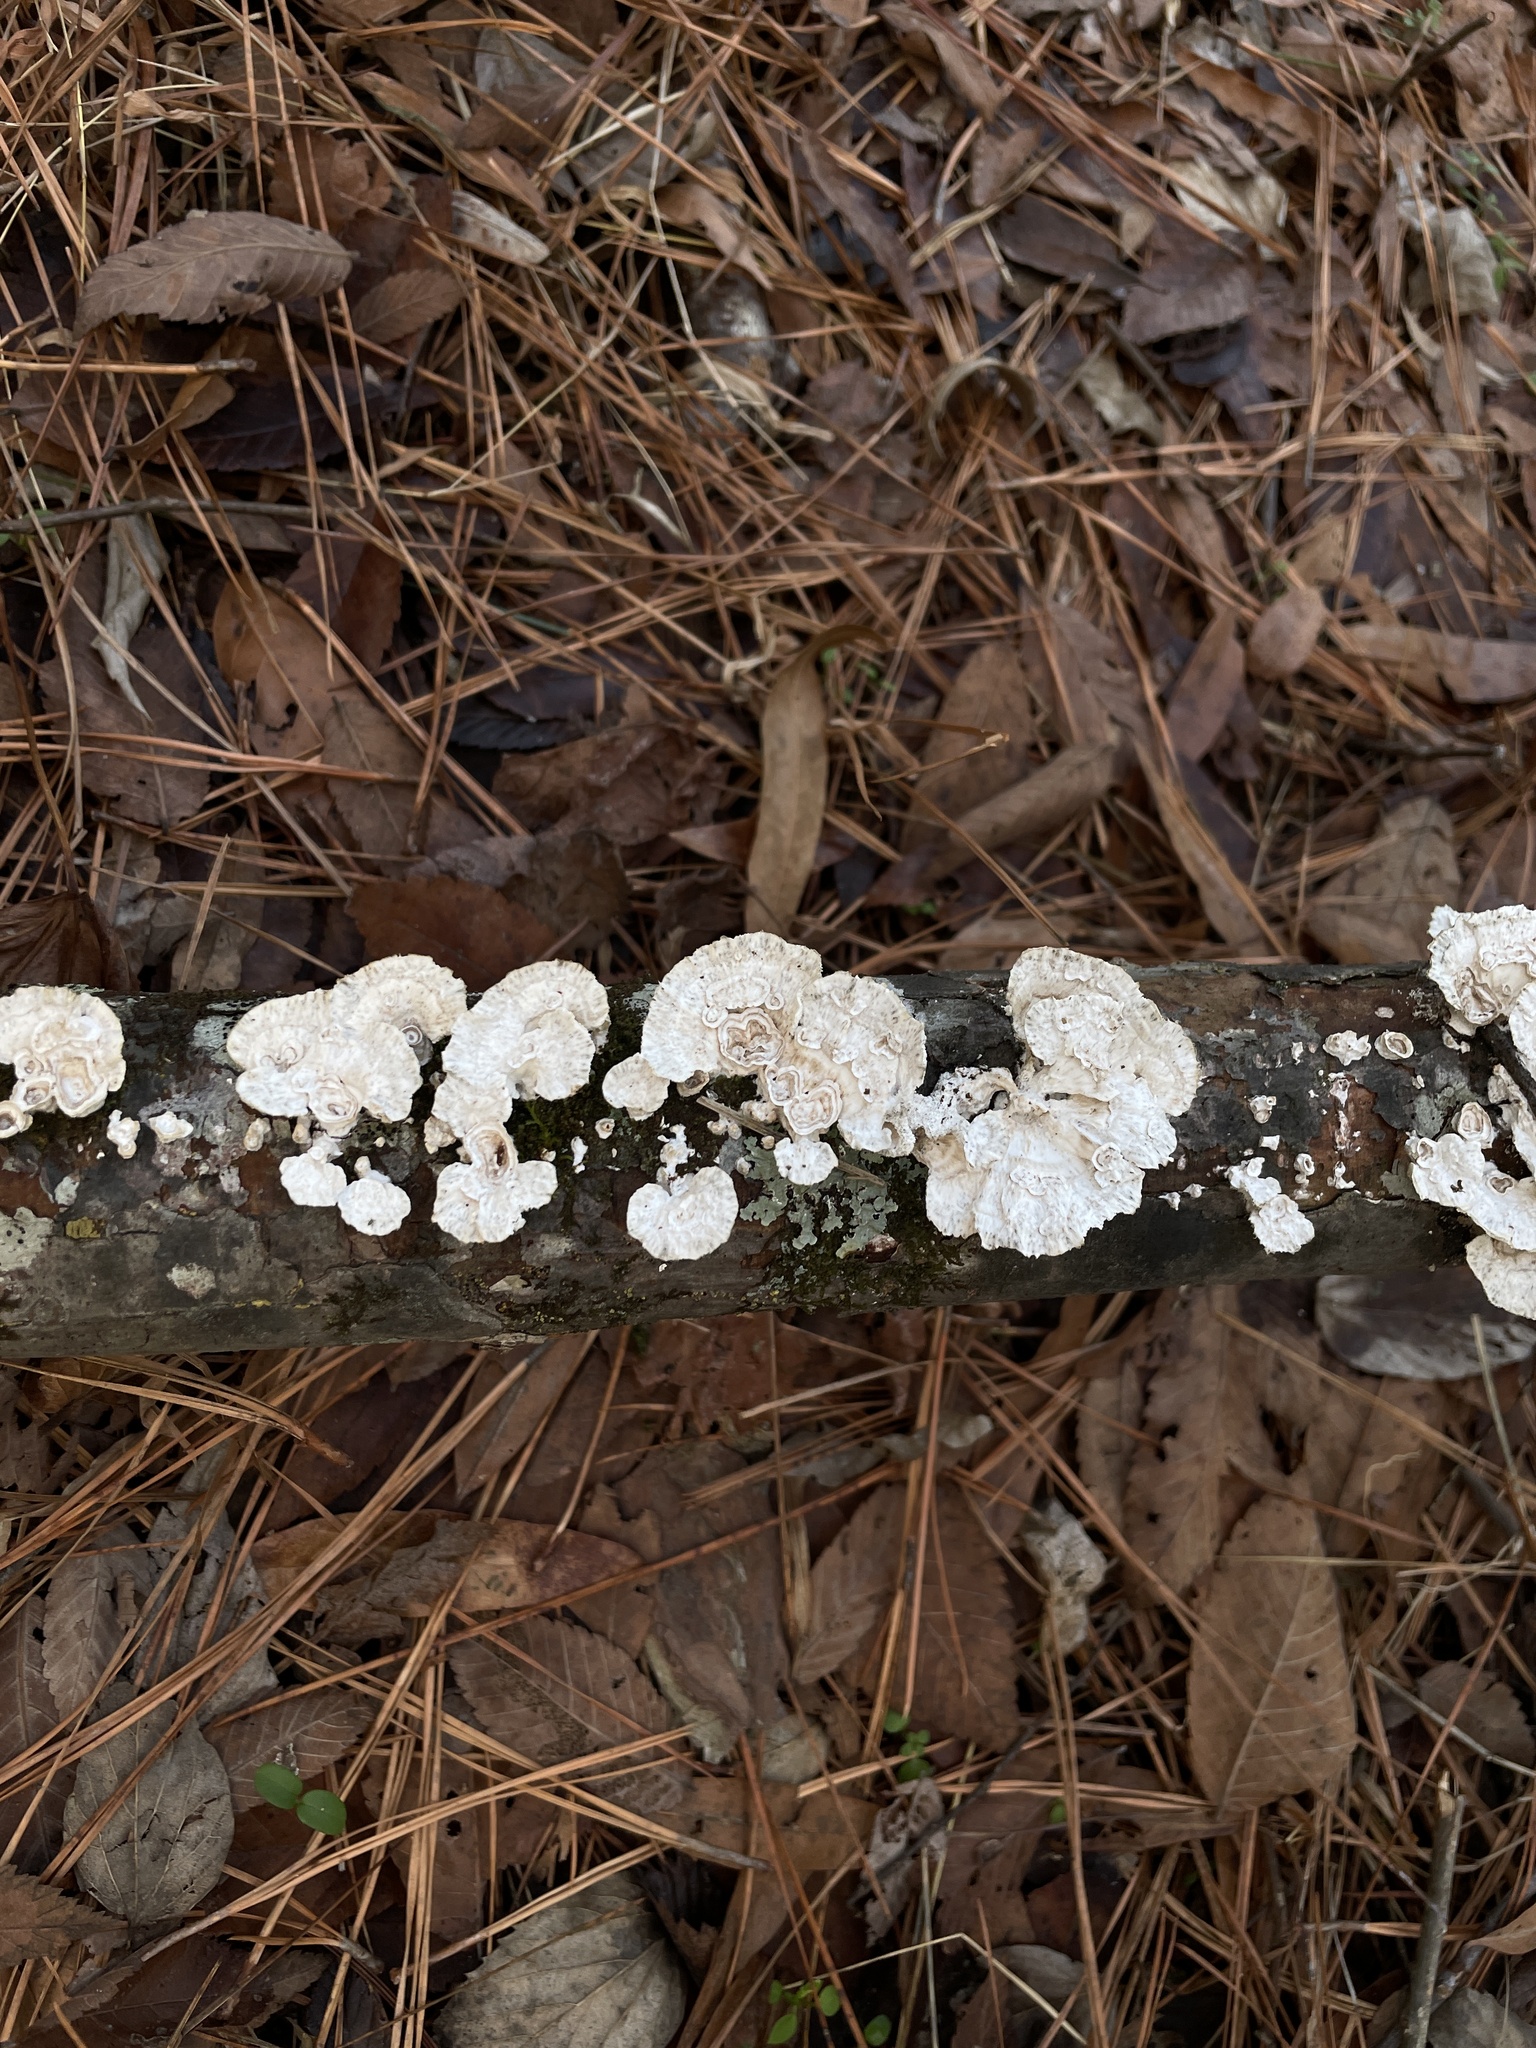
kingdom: Fungi
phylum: Basidiomycota
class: Agaricomycetes
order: Polyporales
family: Polyporaceae
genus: Poronidulus
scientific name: Poronidulus conchifer
